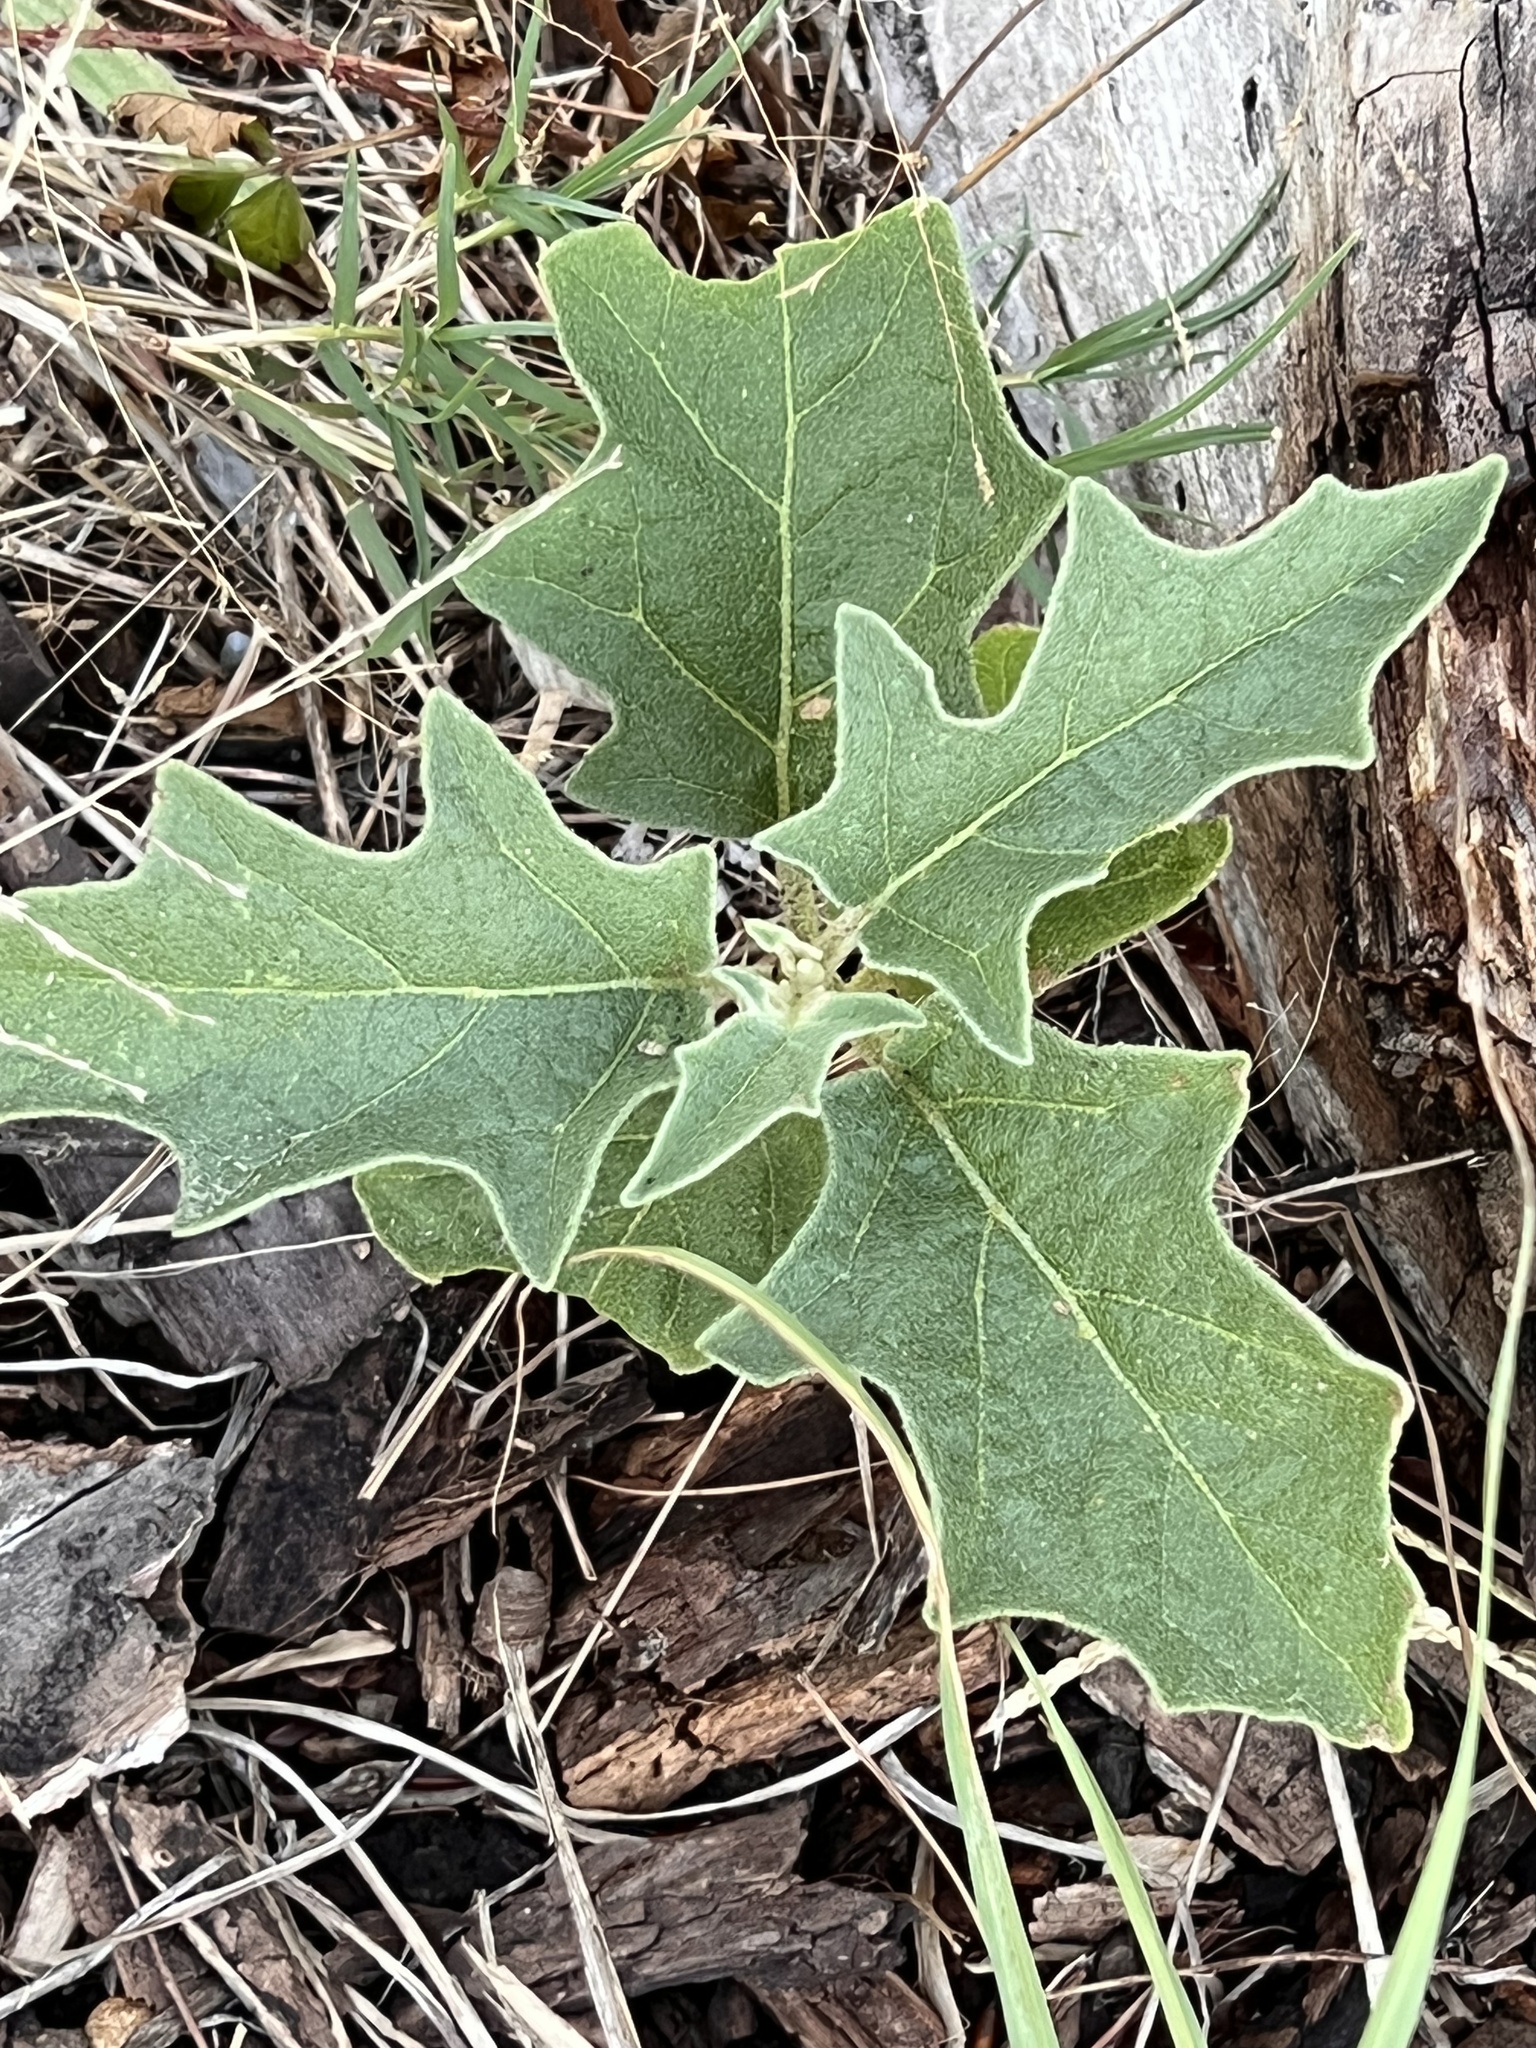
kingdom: Plantae
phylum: Tracheophyta
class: Magnoliopsida
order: Solanales
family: Solanaceae
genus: Solanum
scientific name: Solanum dimidiatum
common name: Carolina horse-nettle
